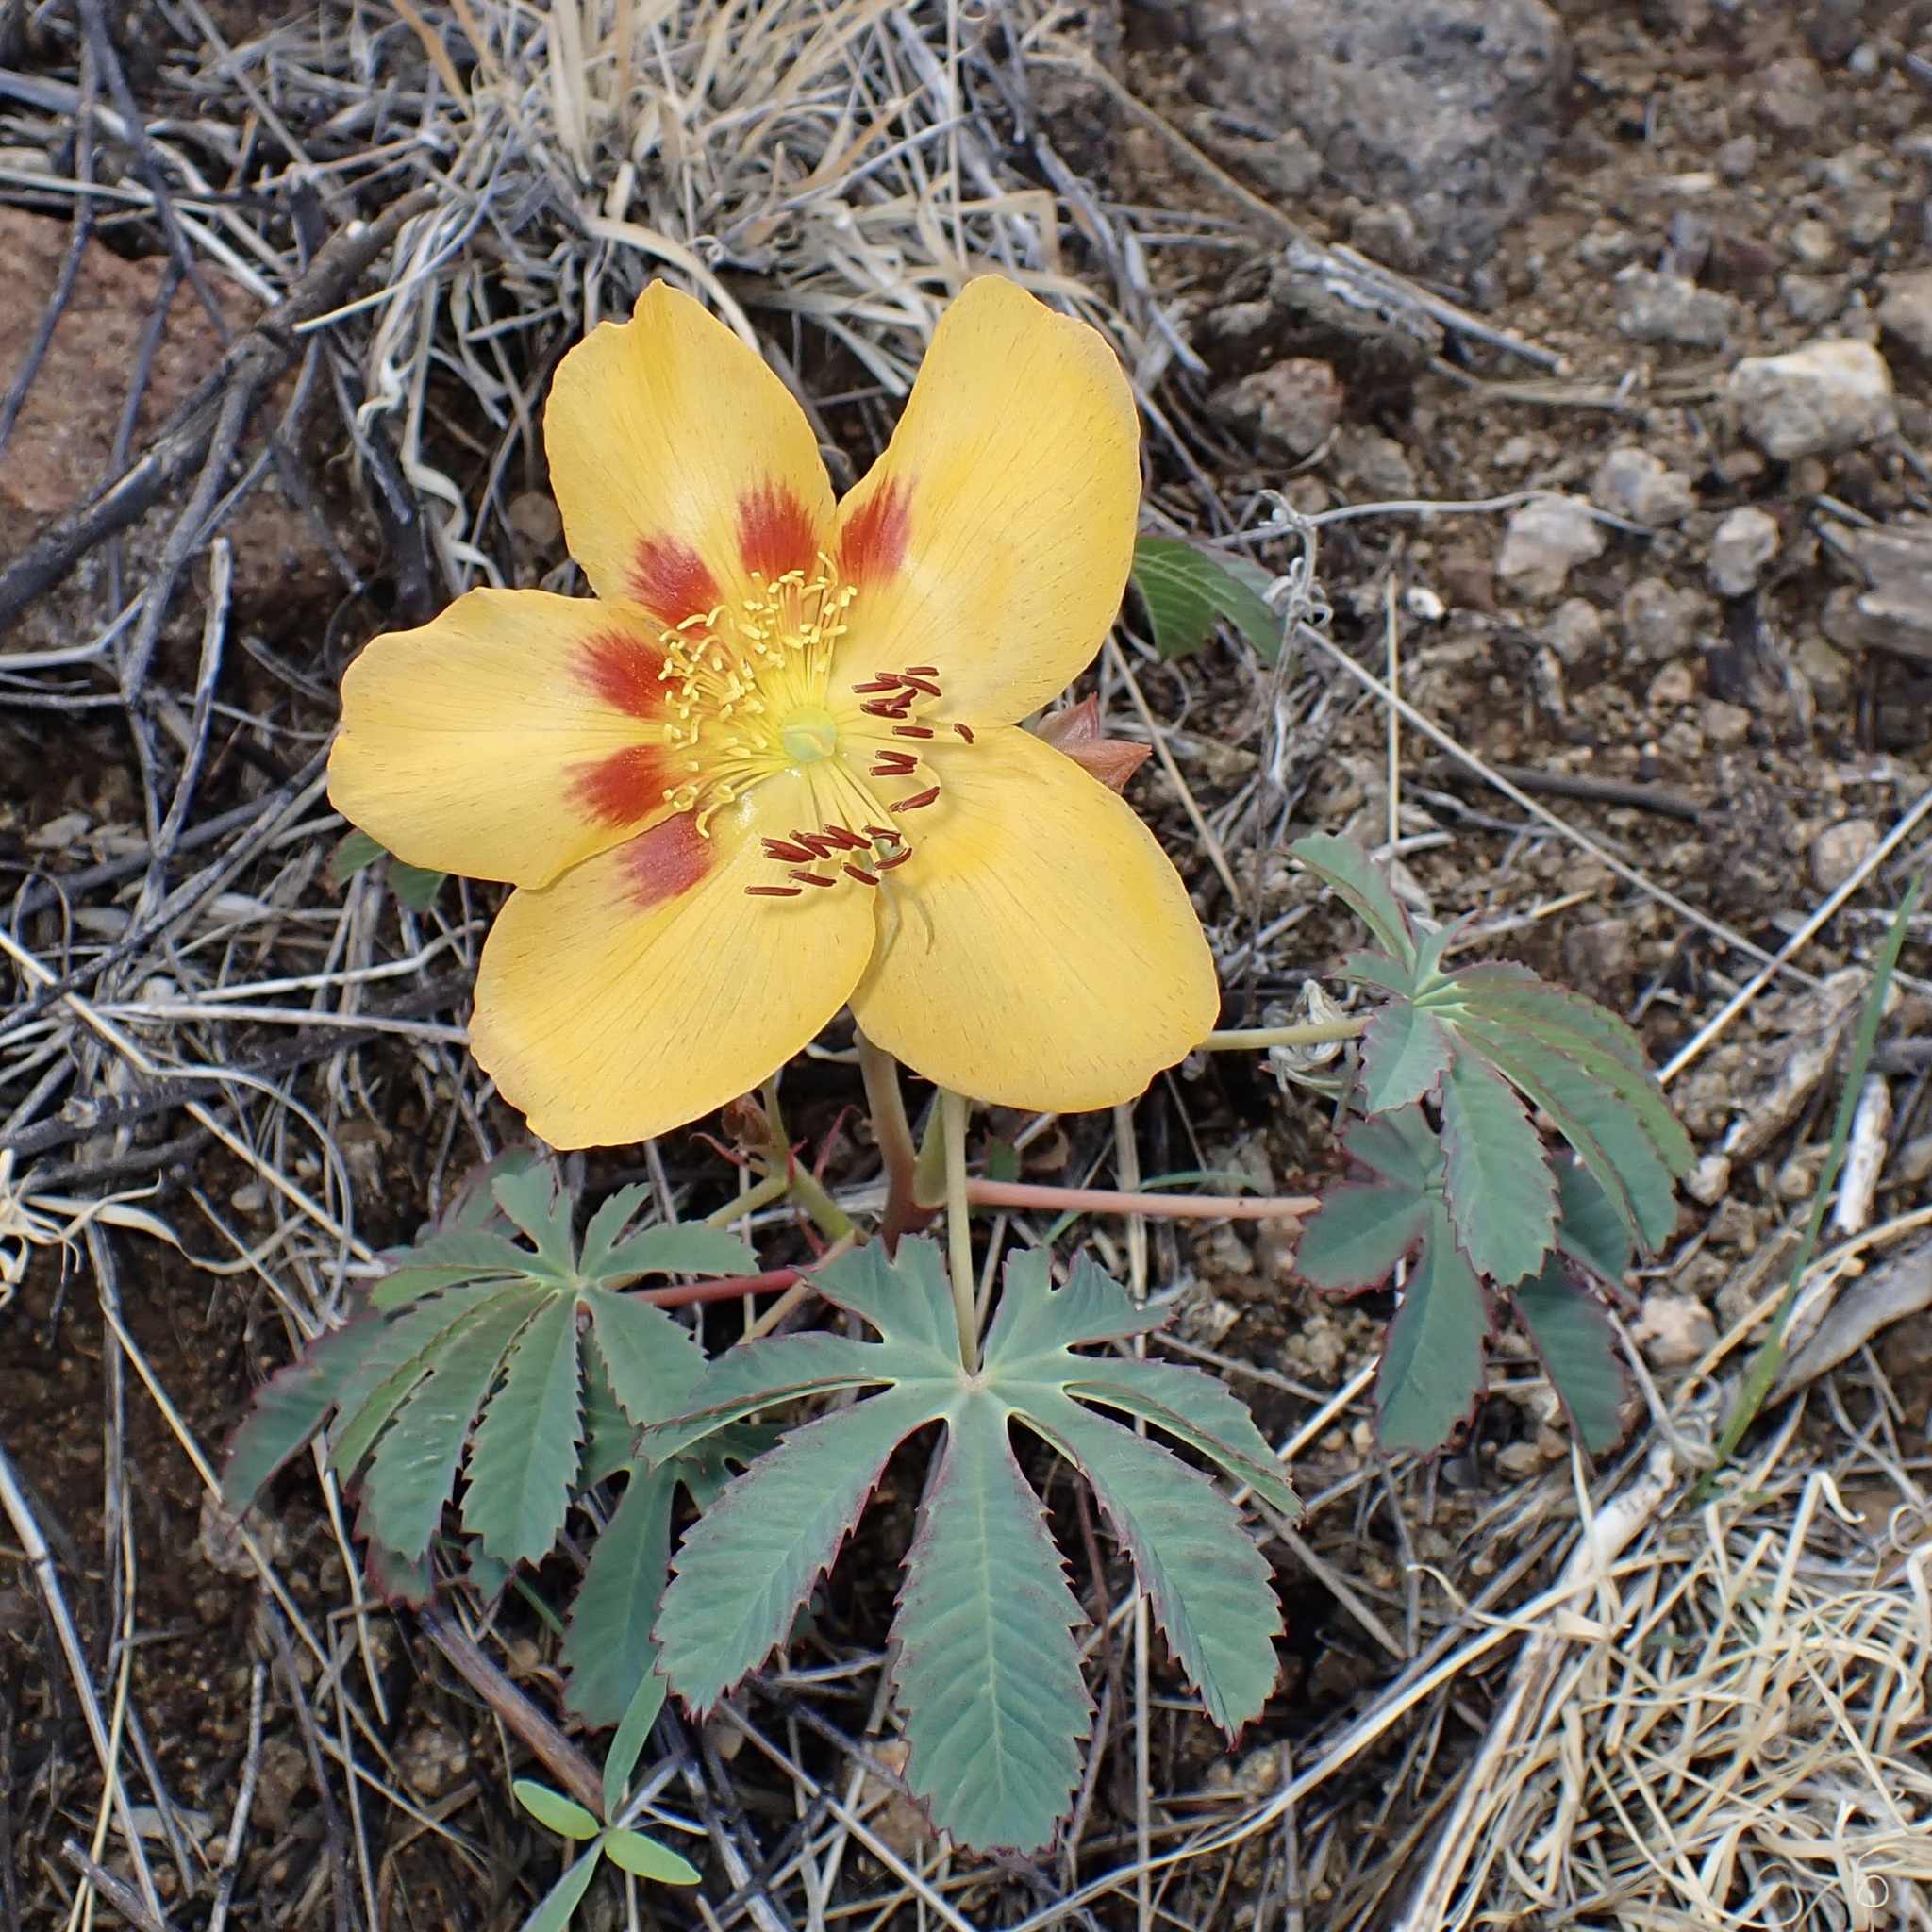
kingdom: Plantae
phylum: Tracheophyta
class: Magnoliopsida
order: Malvales
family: Cochlospermaceae
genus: Cochlospermum
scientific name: Cochlospermum palmatifidum
